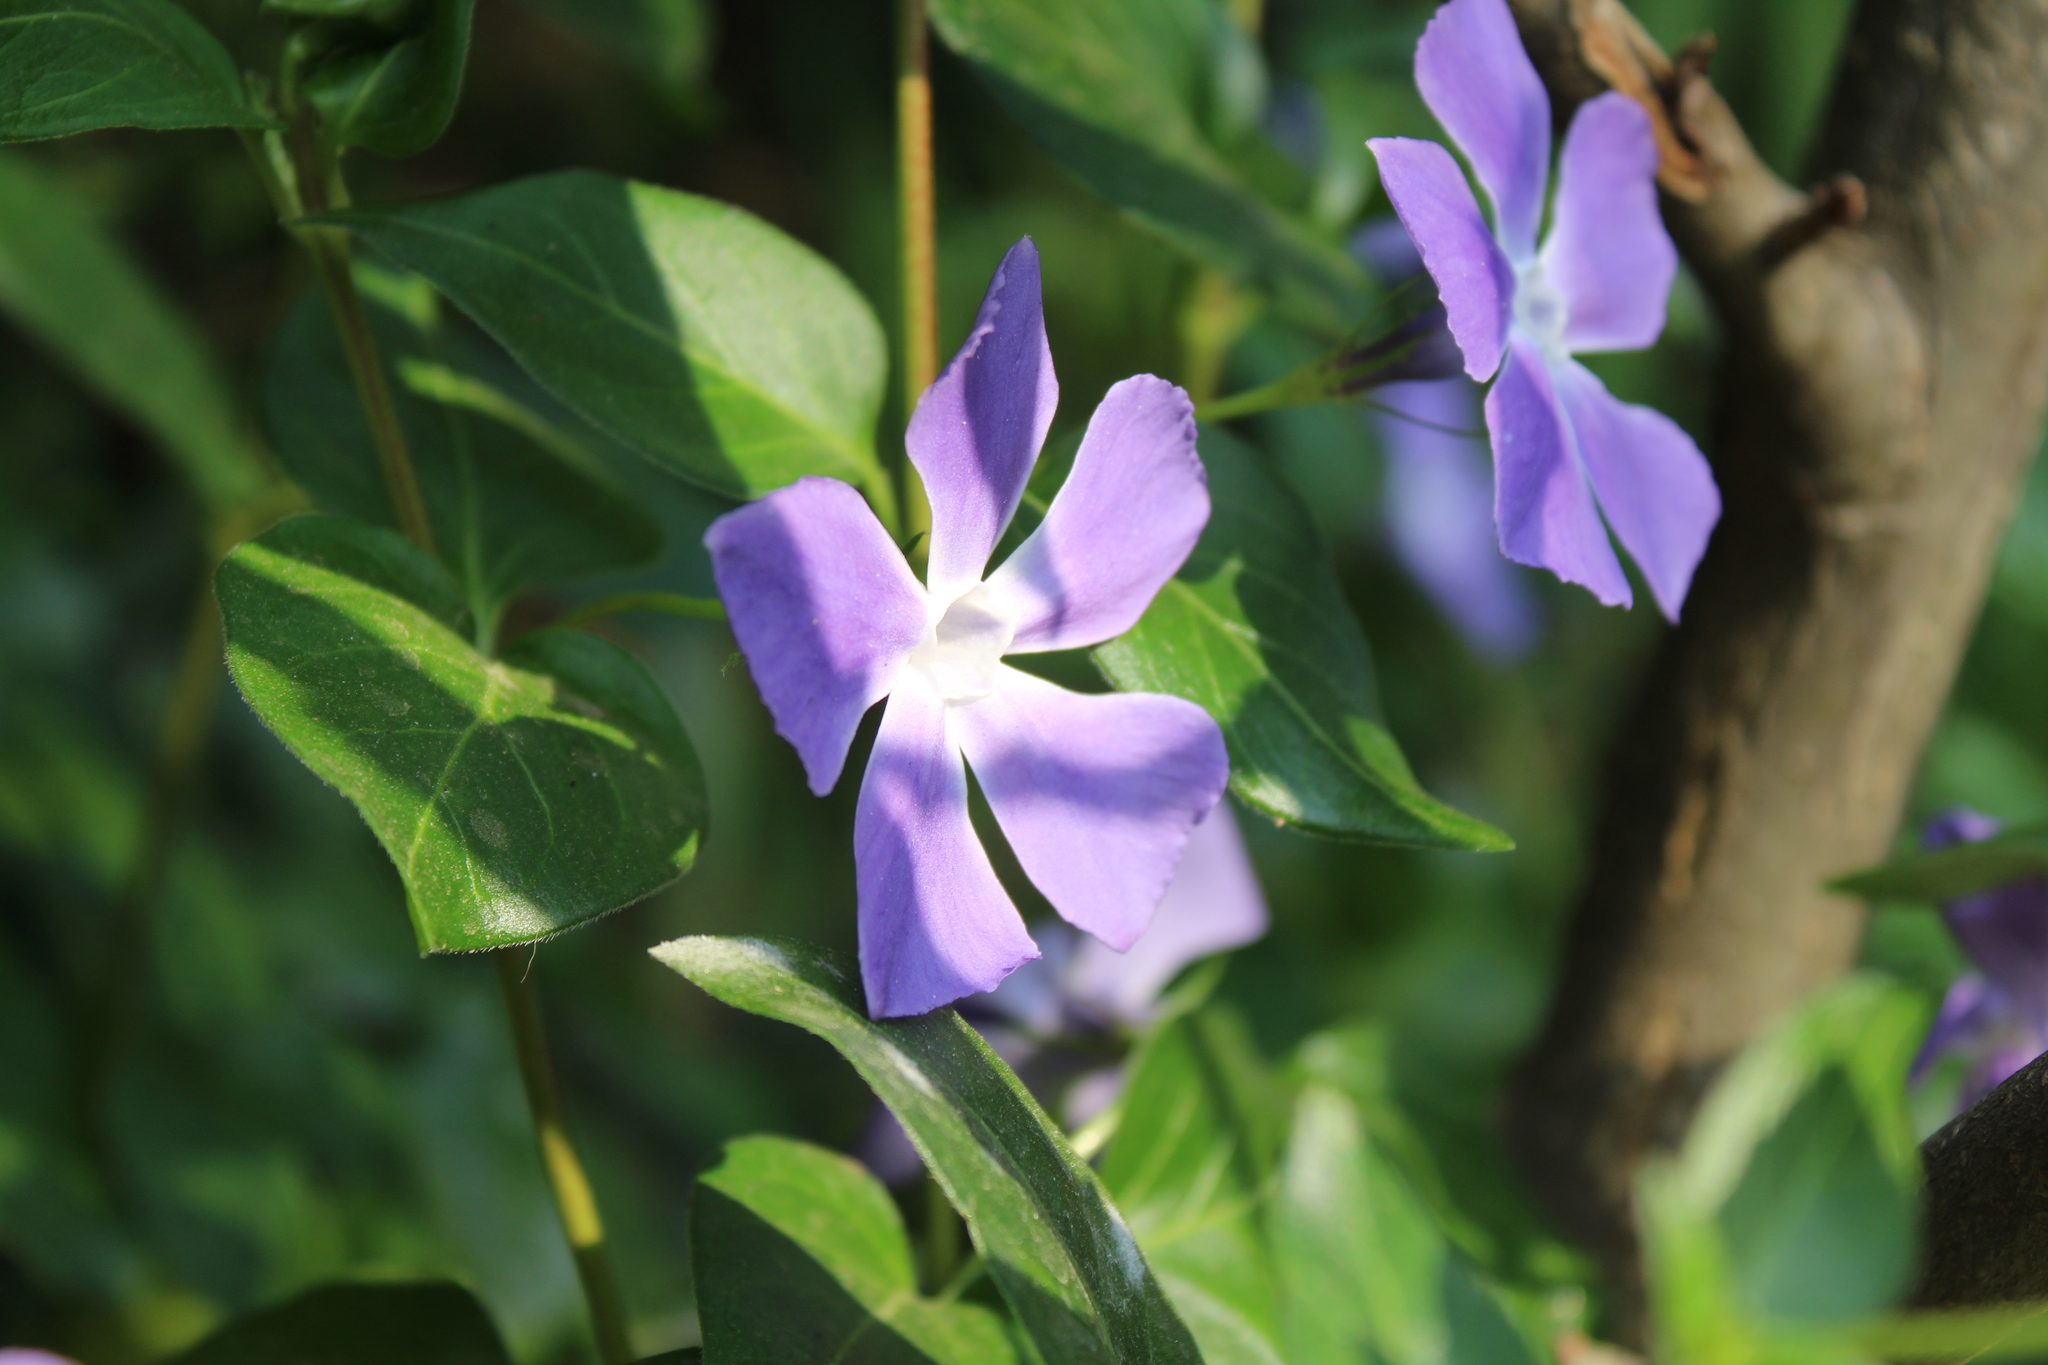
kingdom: Plantae
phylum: Tracheophyta
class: Magnoliopsida
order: Gentianales
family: Apocynaceae
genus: Vinca
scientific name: Vinca major
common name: Greater periwinkle
